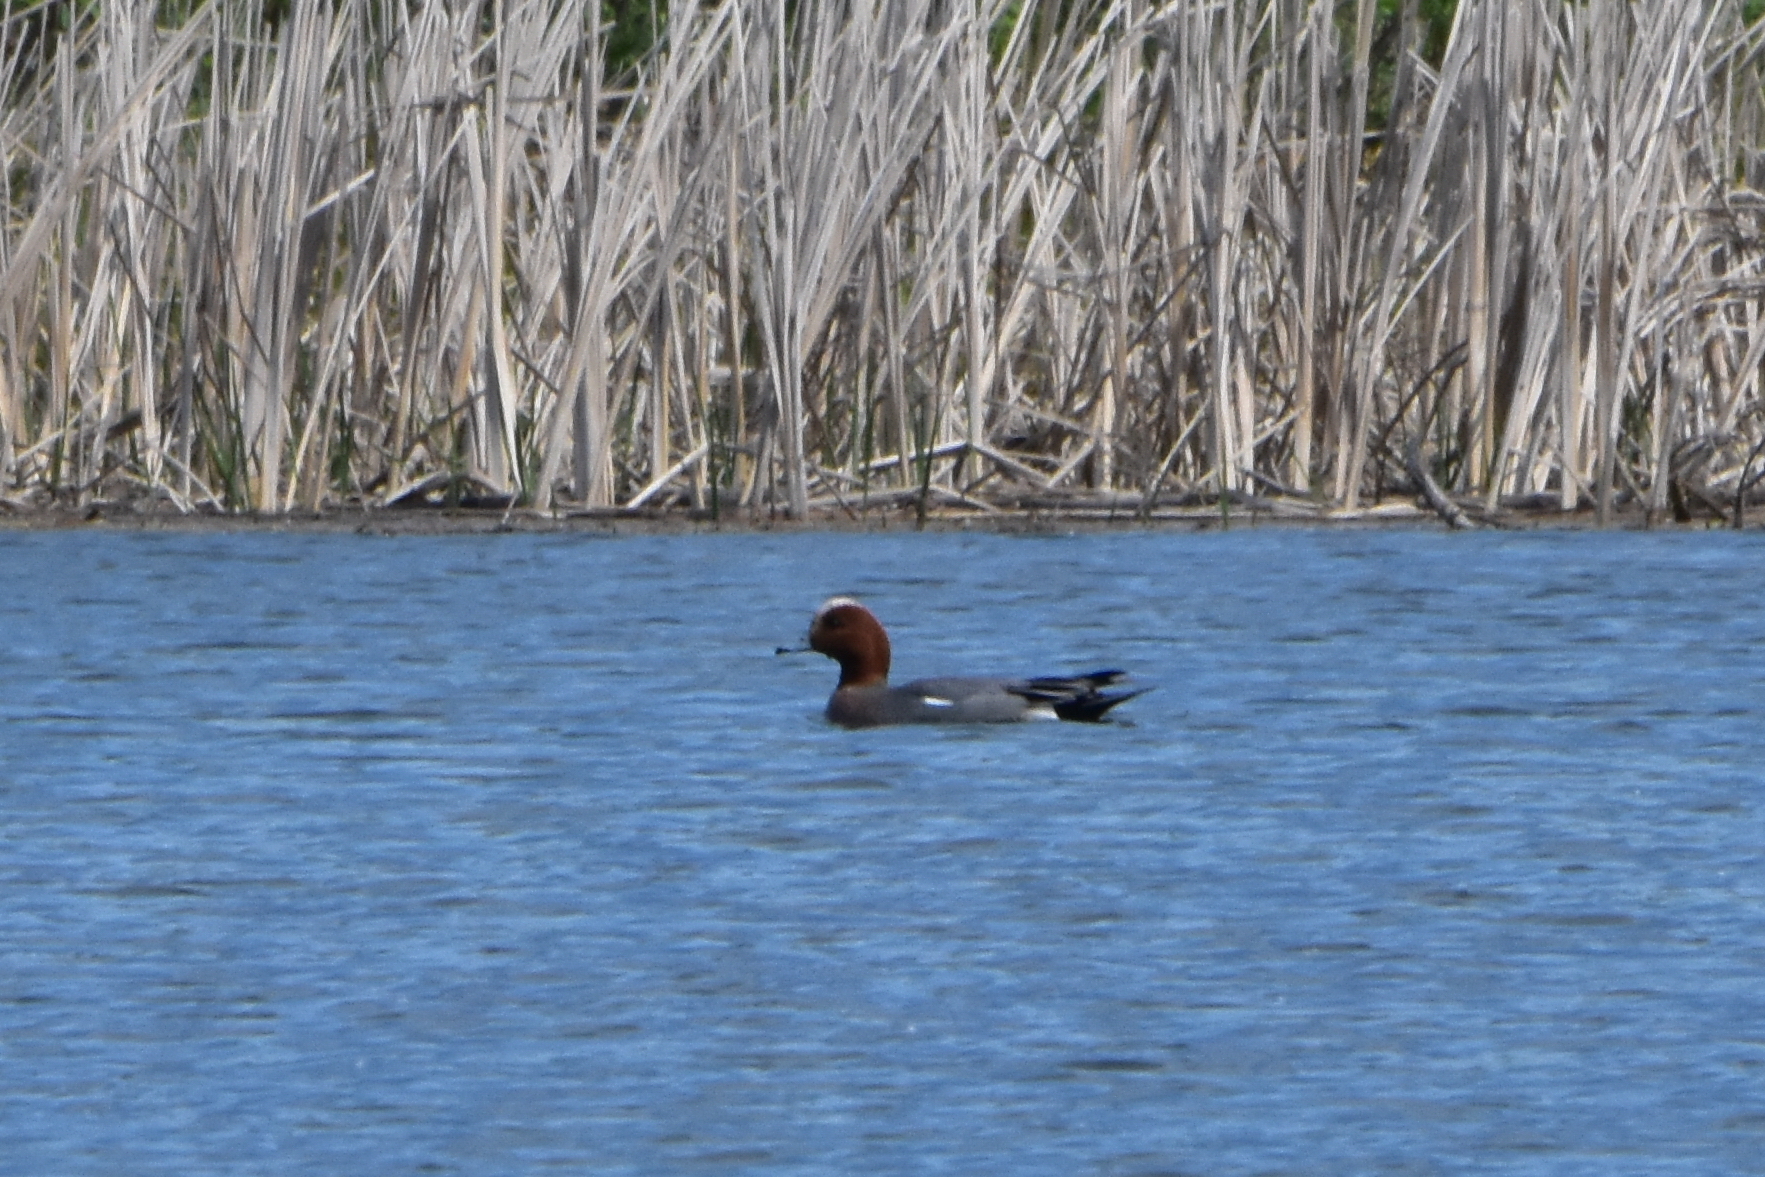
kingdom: Animalia
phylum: Chordata
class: Aves
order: Anseriformes
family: Anatidae
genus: Mareca
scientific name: Mareca penelope
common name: Eurasian wigeon
